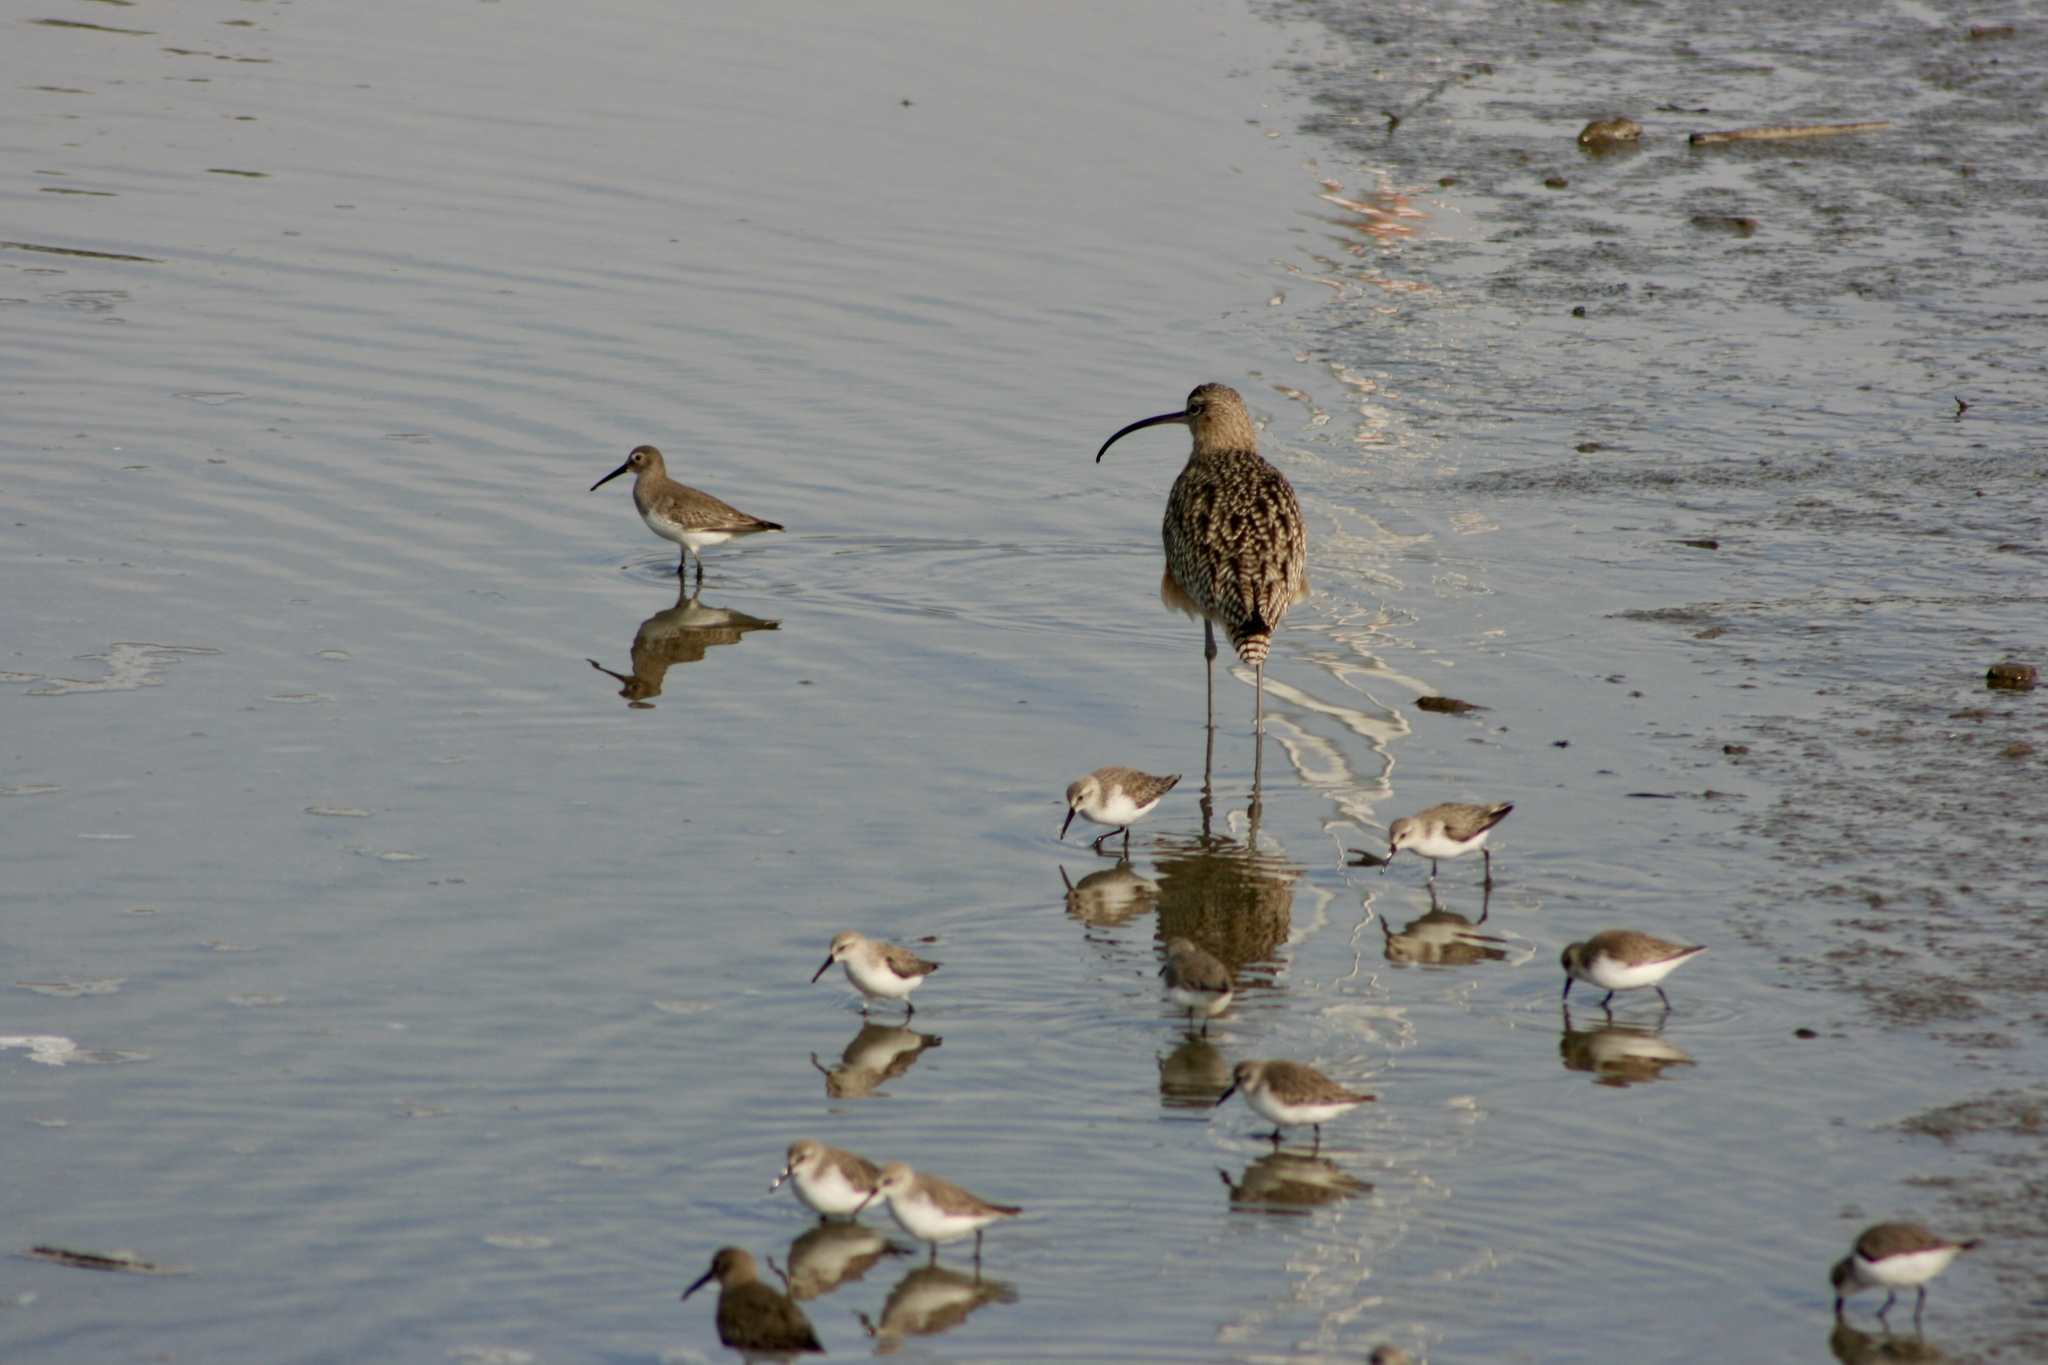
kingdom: Animalia
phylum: Chordata
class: Aves
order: Charadriiformes
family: Scolopacidae
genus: Numenius
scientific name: Numenius americanus
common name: Long-billed curlew
